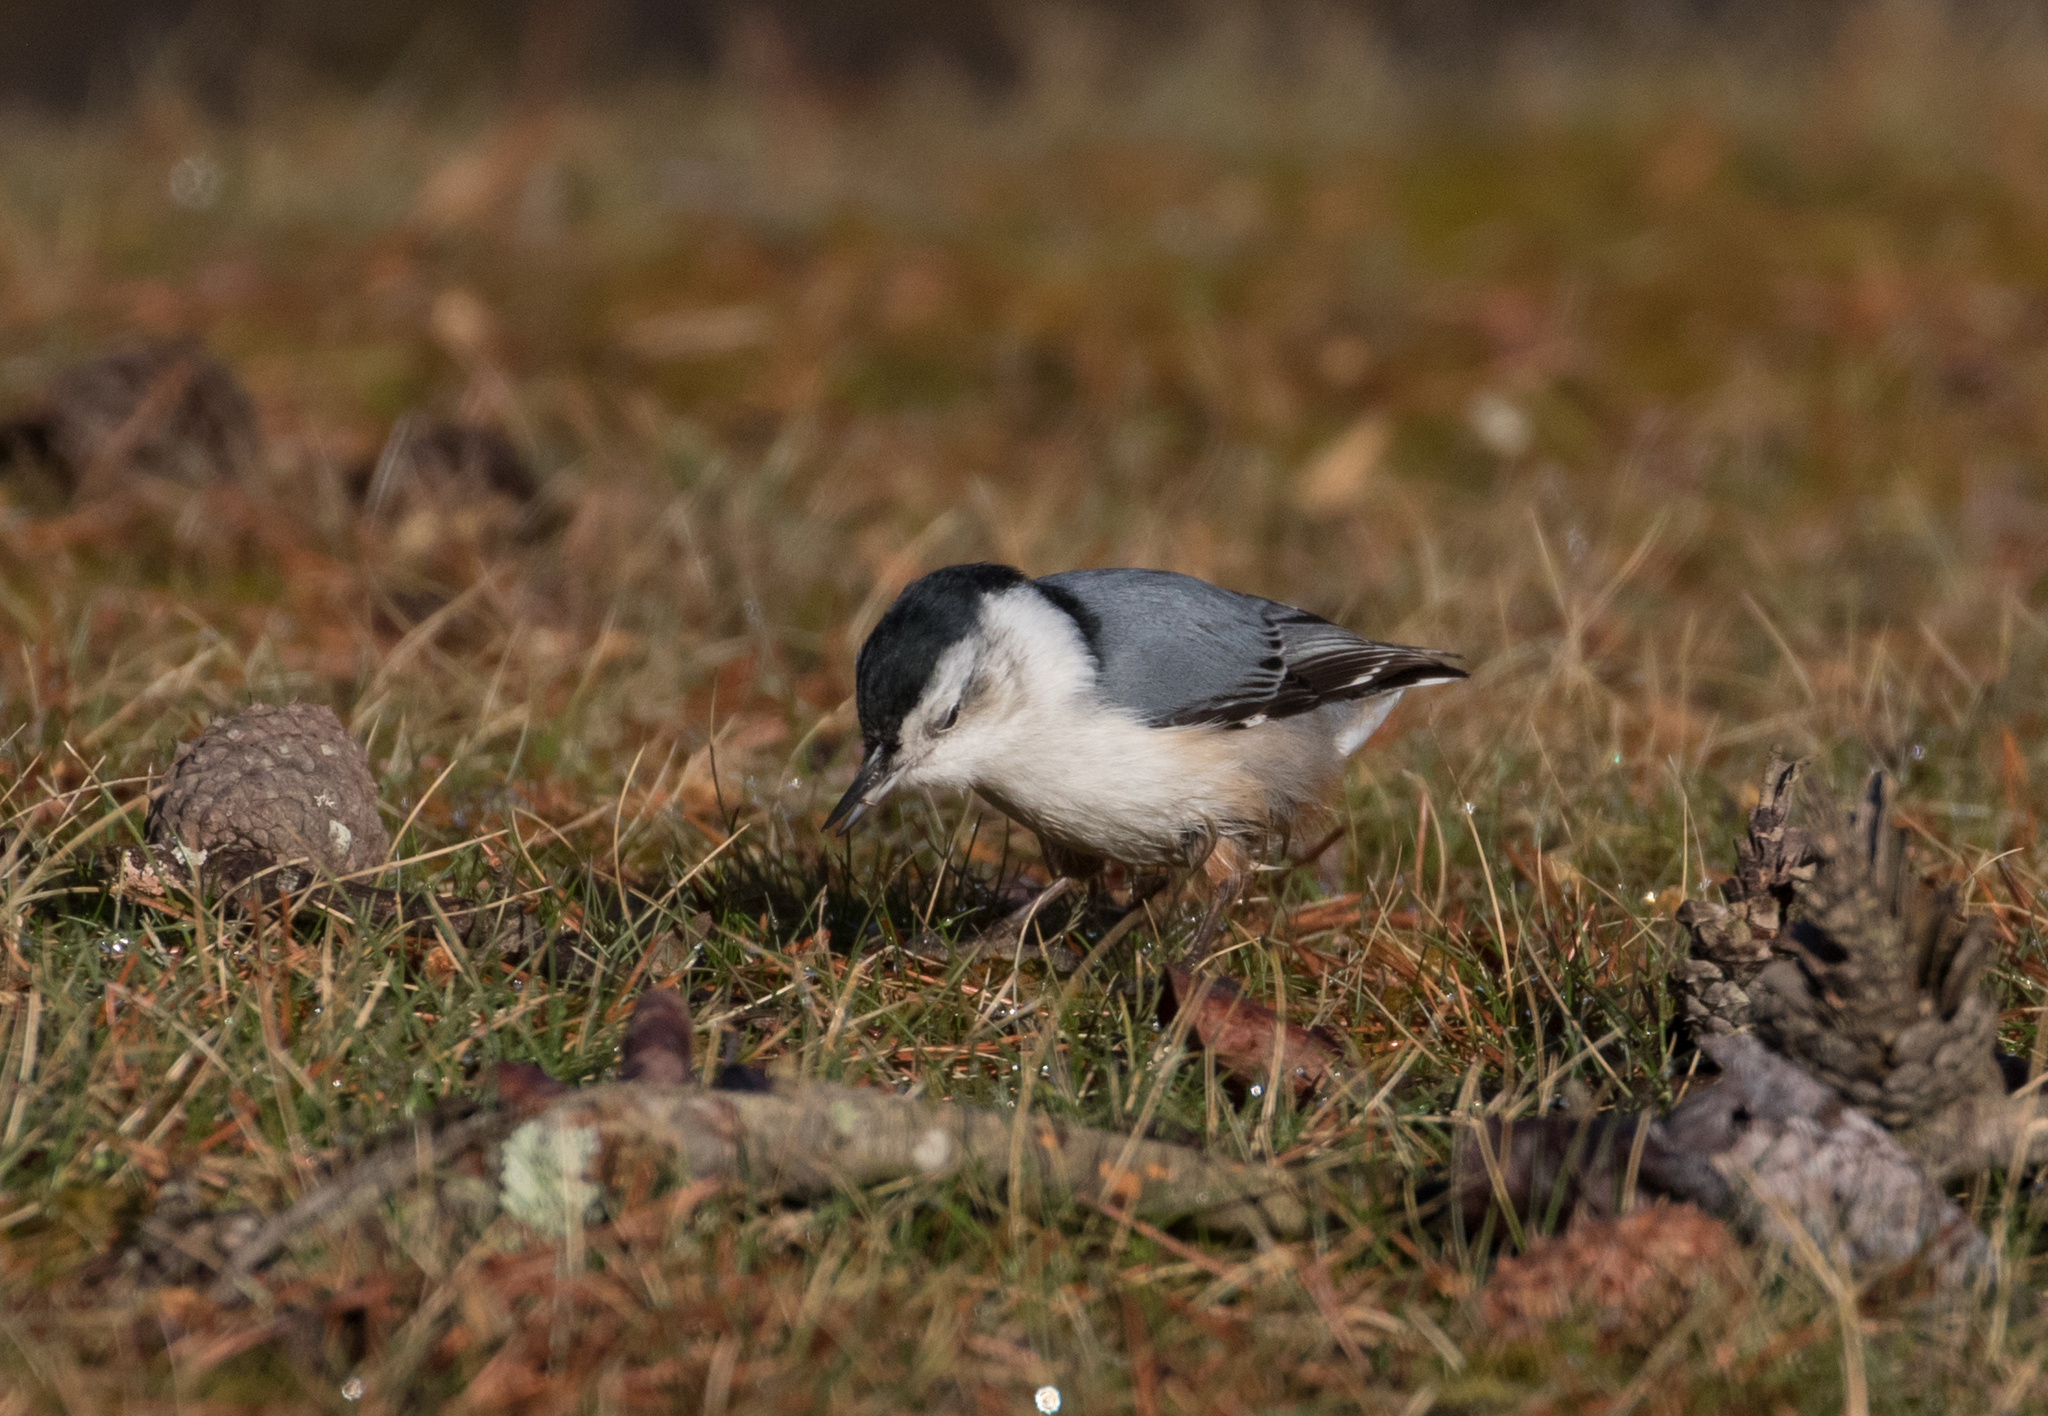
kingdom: Animalia
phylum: Chordata
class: Aves
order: Passeriformes
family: Sittidae
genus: Sitta
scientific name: Sitta carolinensis
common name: White-breasted nuthatch
